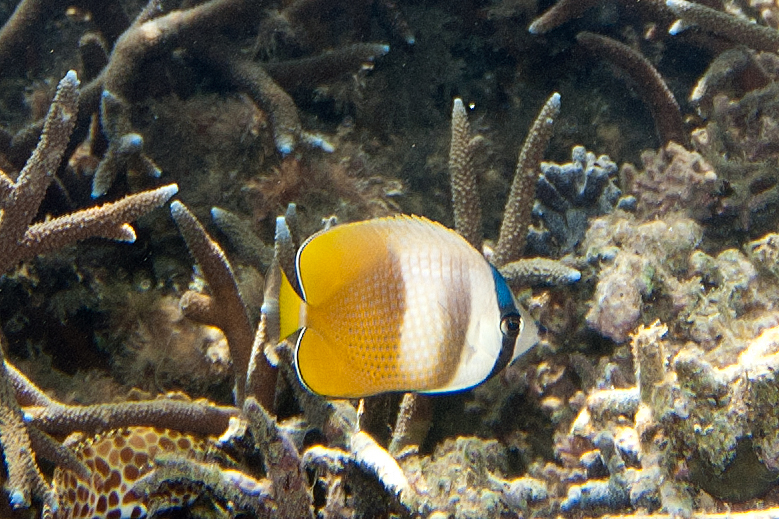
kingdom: Animalia
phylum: Chordata
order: Perciformes
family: Chaetodontidae
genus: Chaetodon
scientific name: Chaetodon kleinii
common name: Klein's butterflyfish
